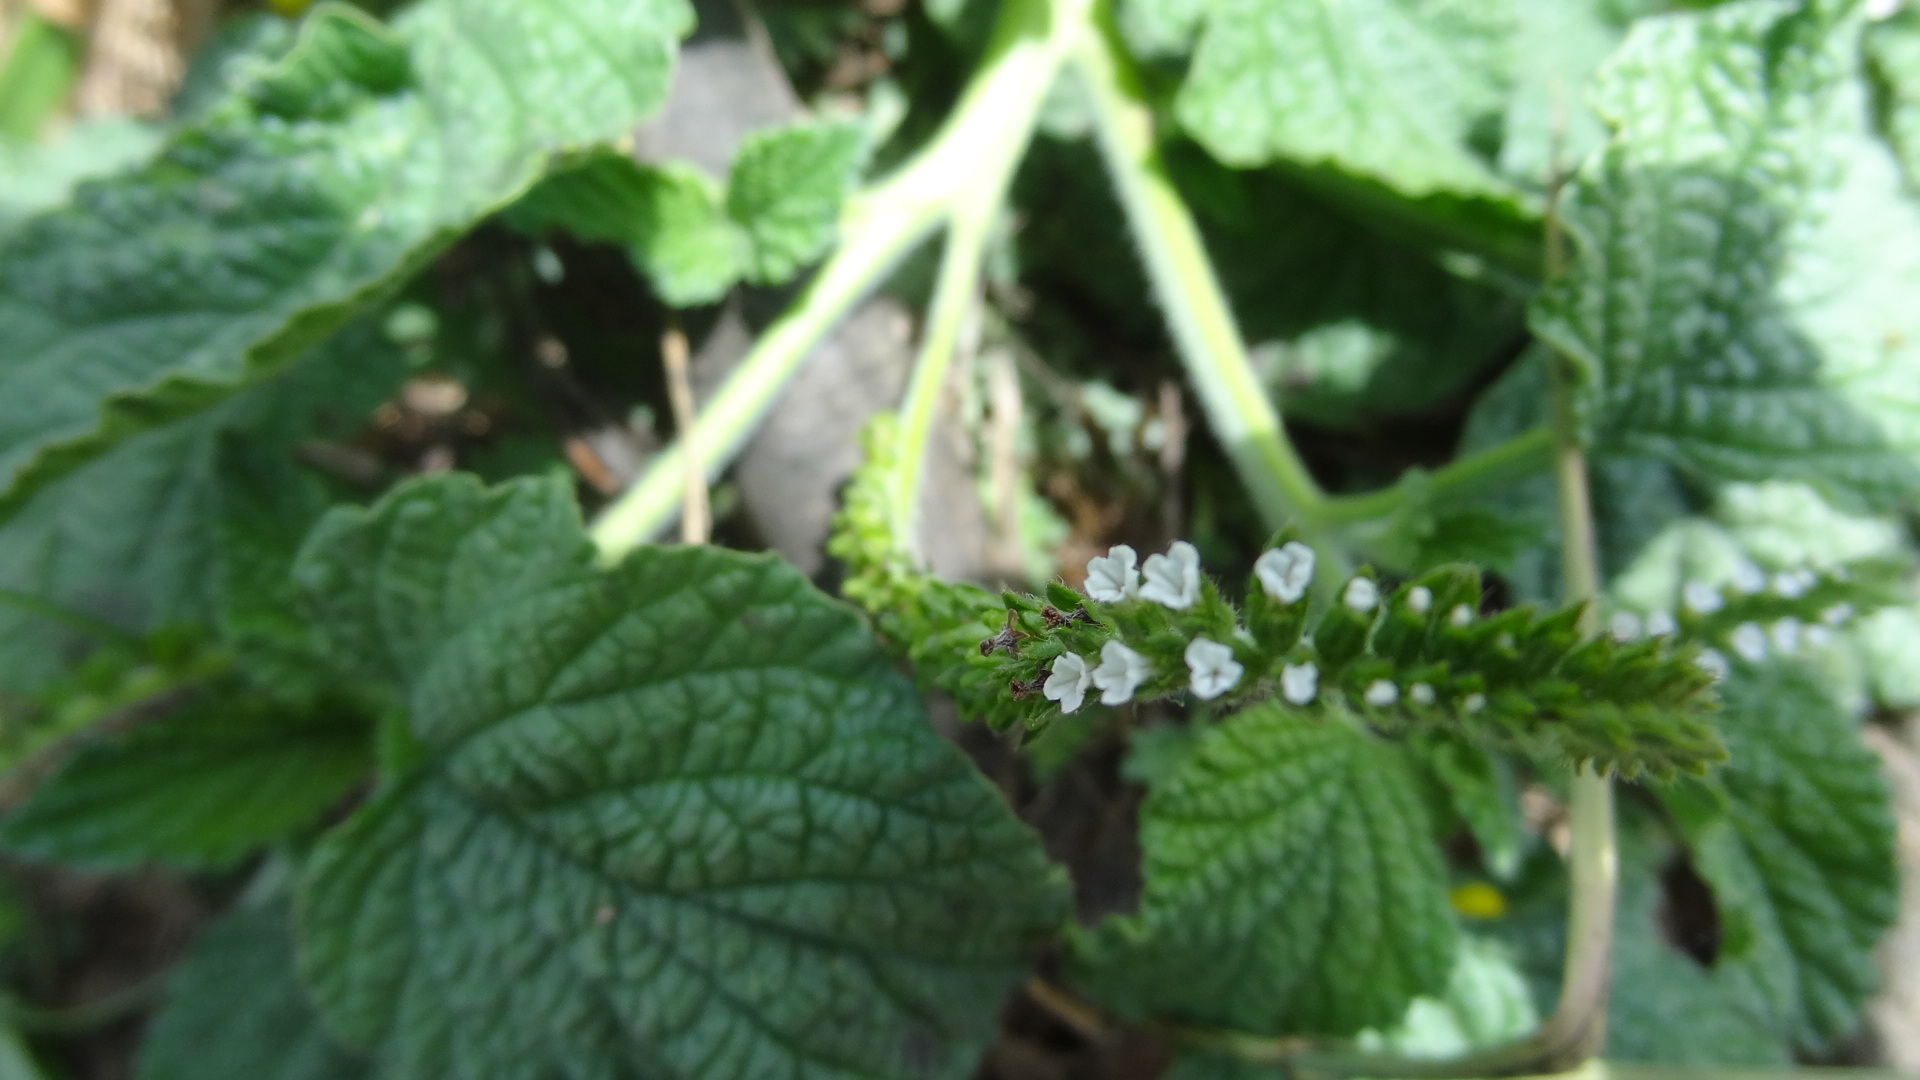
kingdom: Plantae
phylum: Tracheophyta
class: Magnoliopsida
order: Boraginales
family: Heliotropiaceae
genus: Heliotropium
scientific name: Heliotropium indicum
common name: Indian heliotrope
